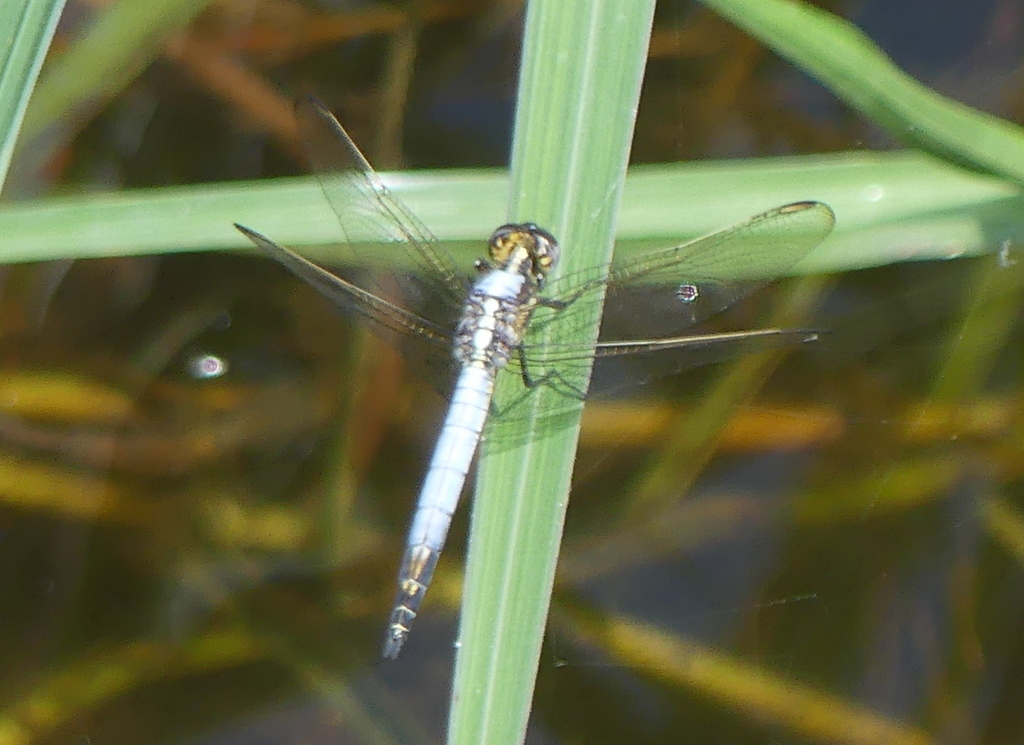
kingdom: Animalia
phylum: Arthropoda
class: Insecta
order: Odonata
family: Libellulidae
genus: Nesciothemis
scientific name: Nesciothemis farinosa
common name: Eastern blacktail
